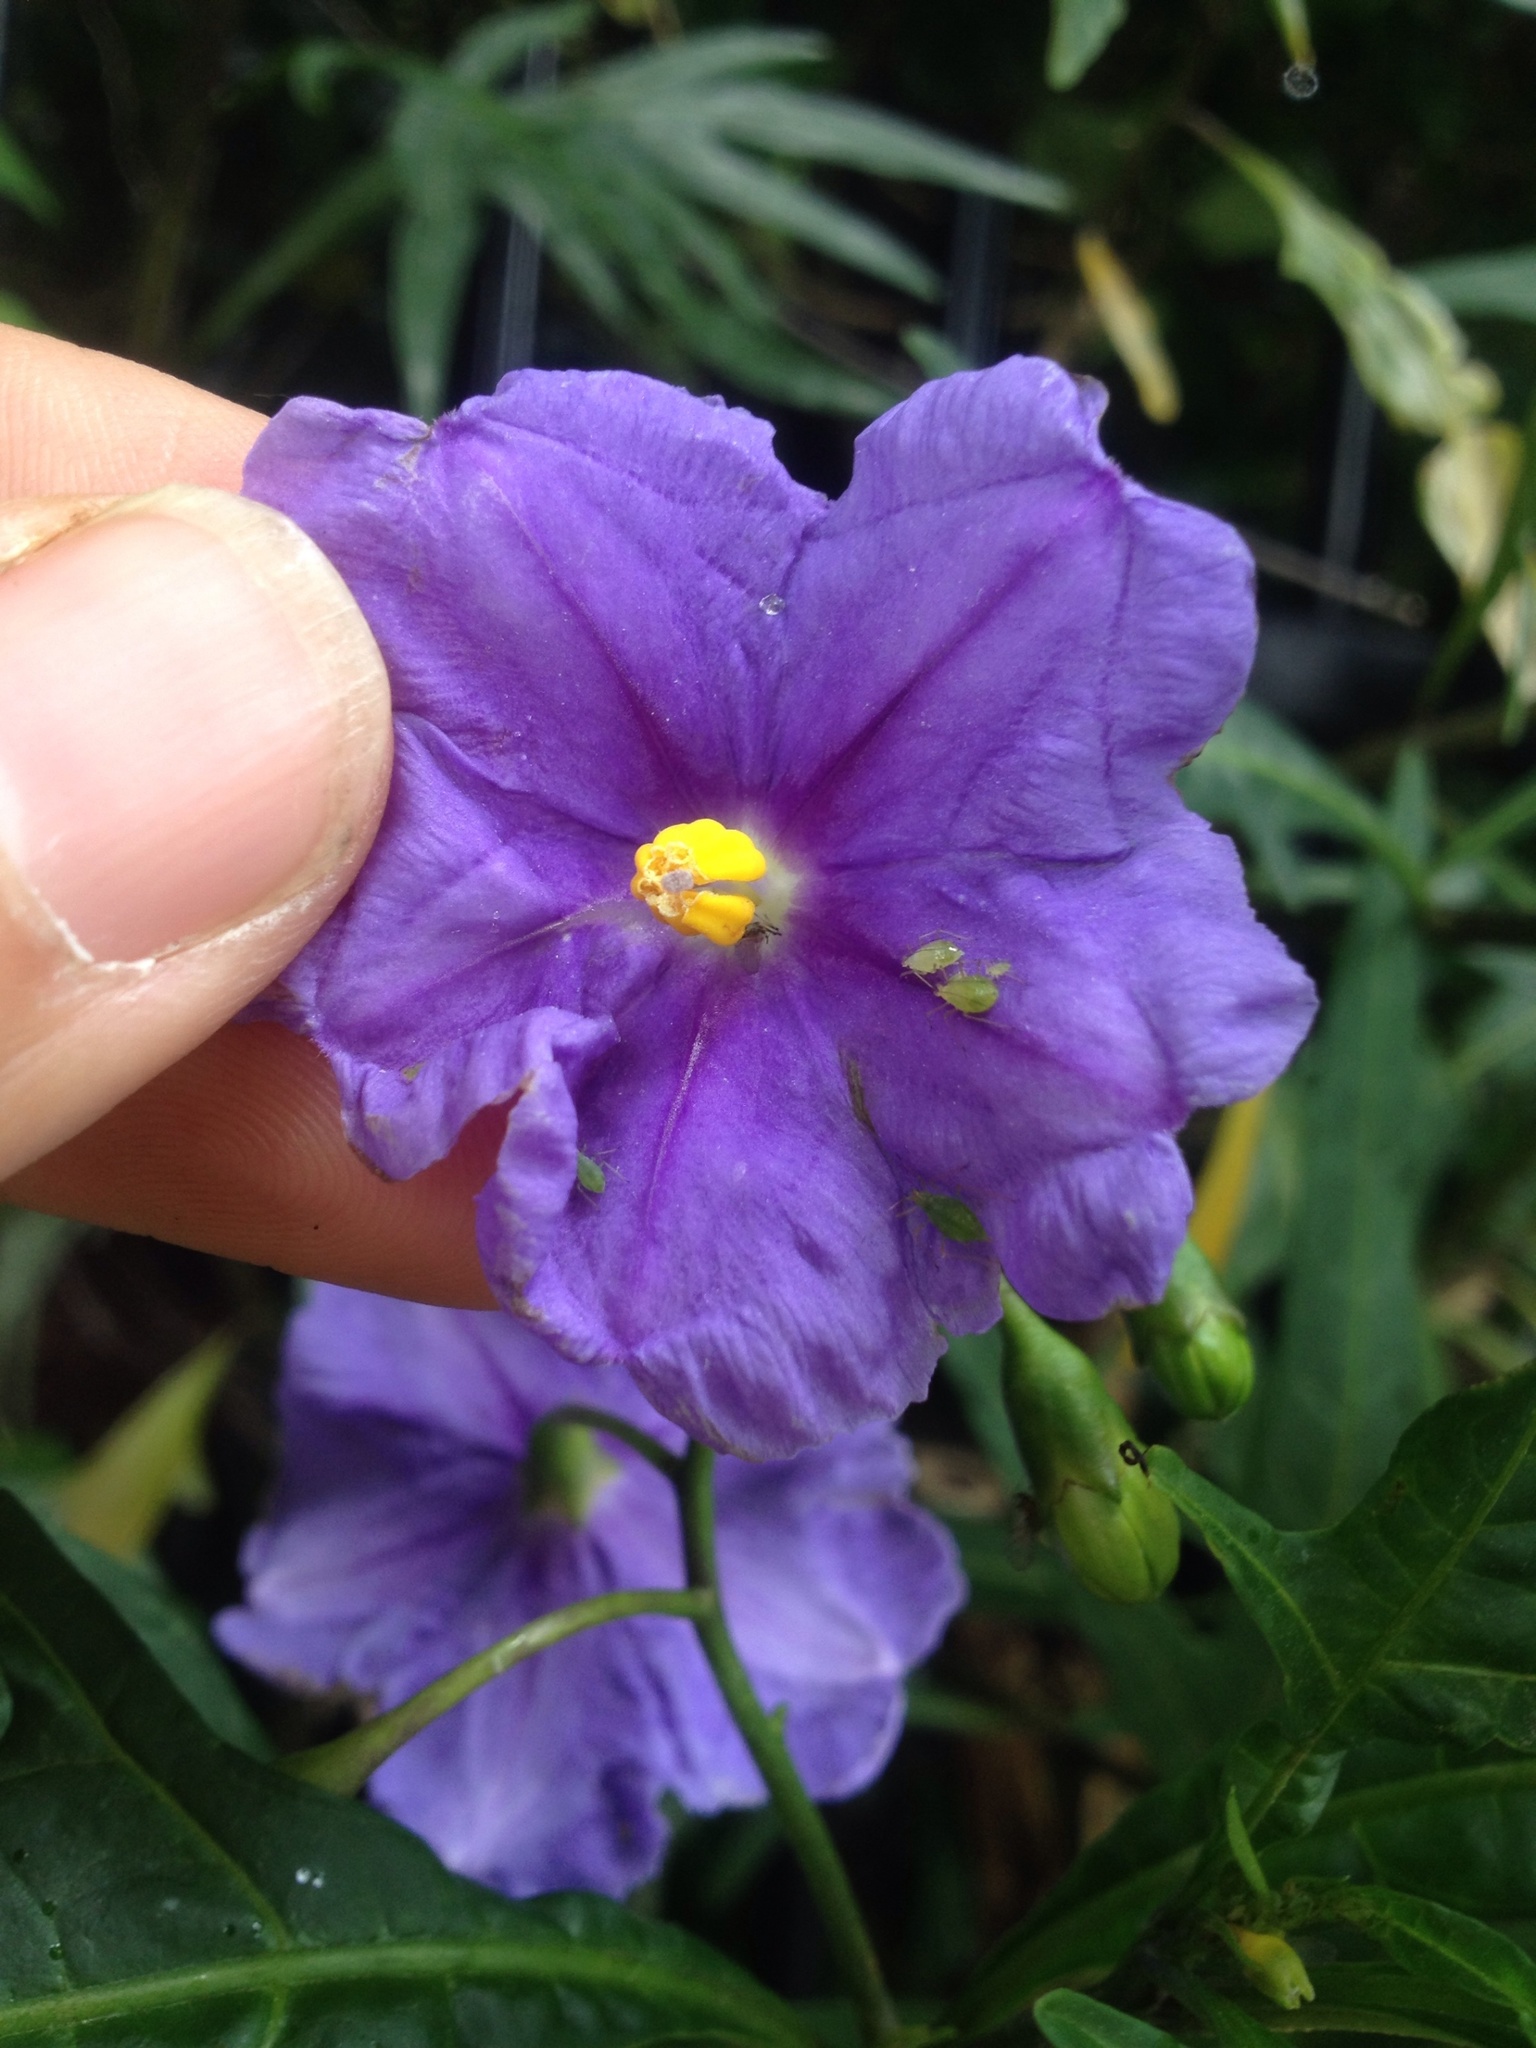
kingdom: Plantae
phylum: Tracheophyta
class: Magnoliopsida
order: Solanales
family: Solanaceae
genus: Solanum
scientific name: Solanum laciniatum
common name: Kangaroo-apple
